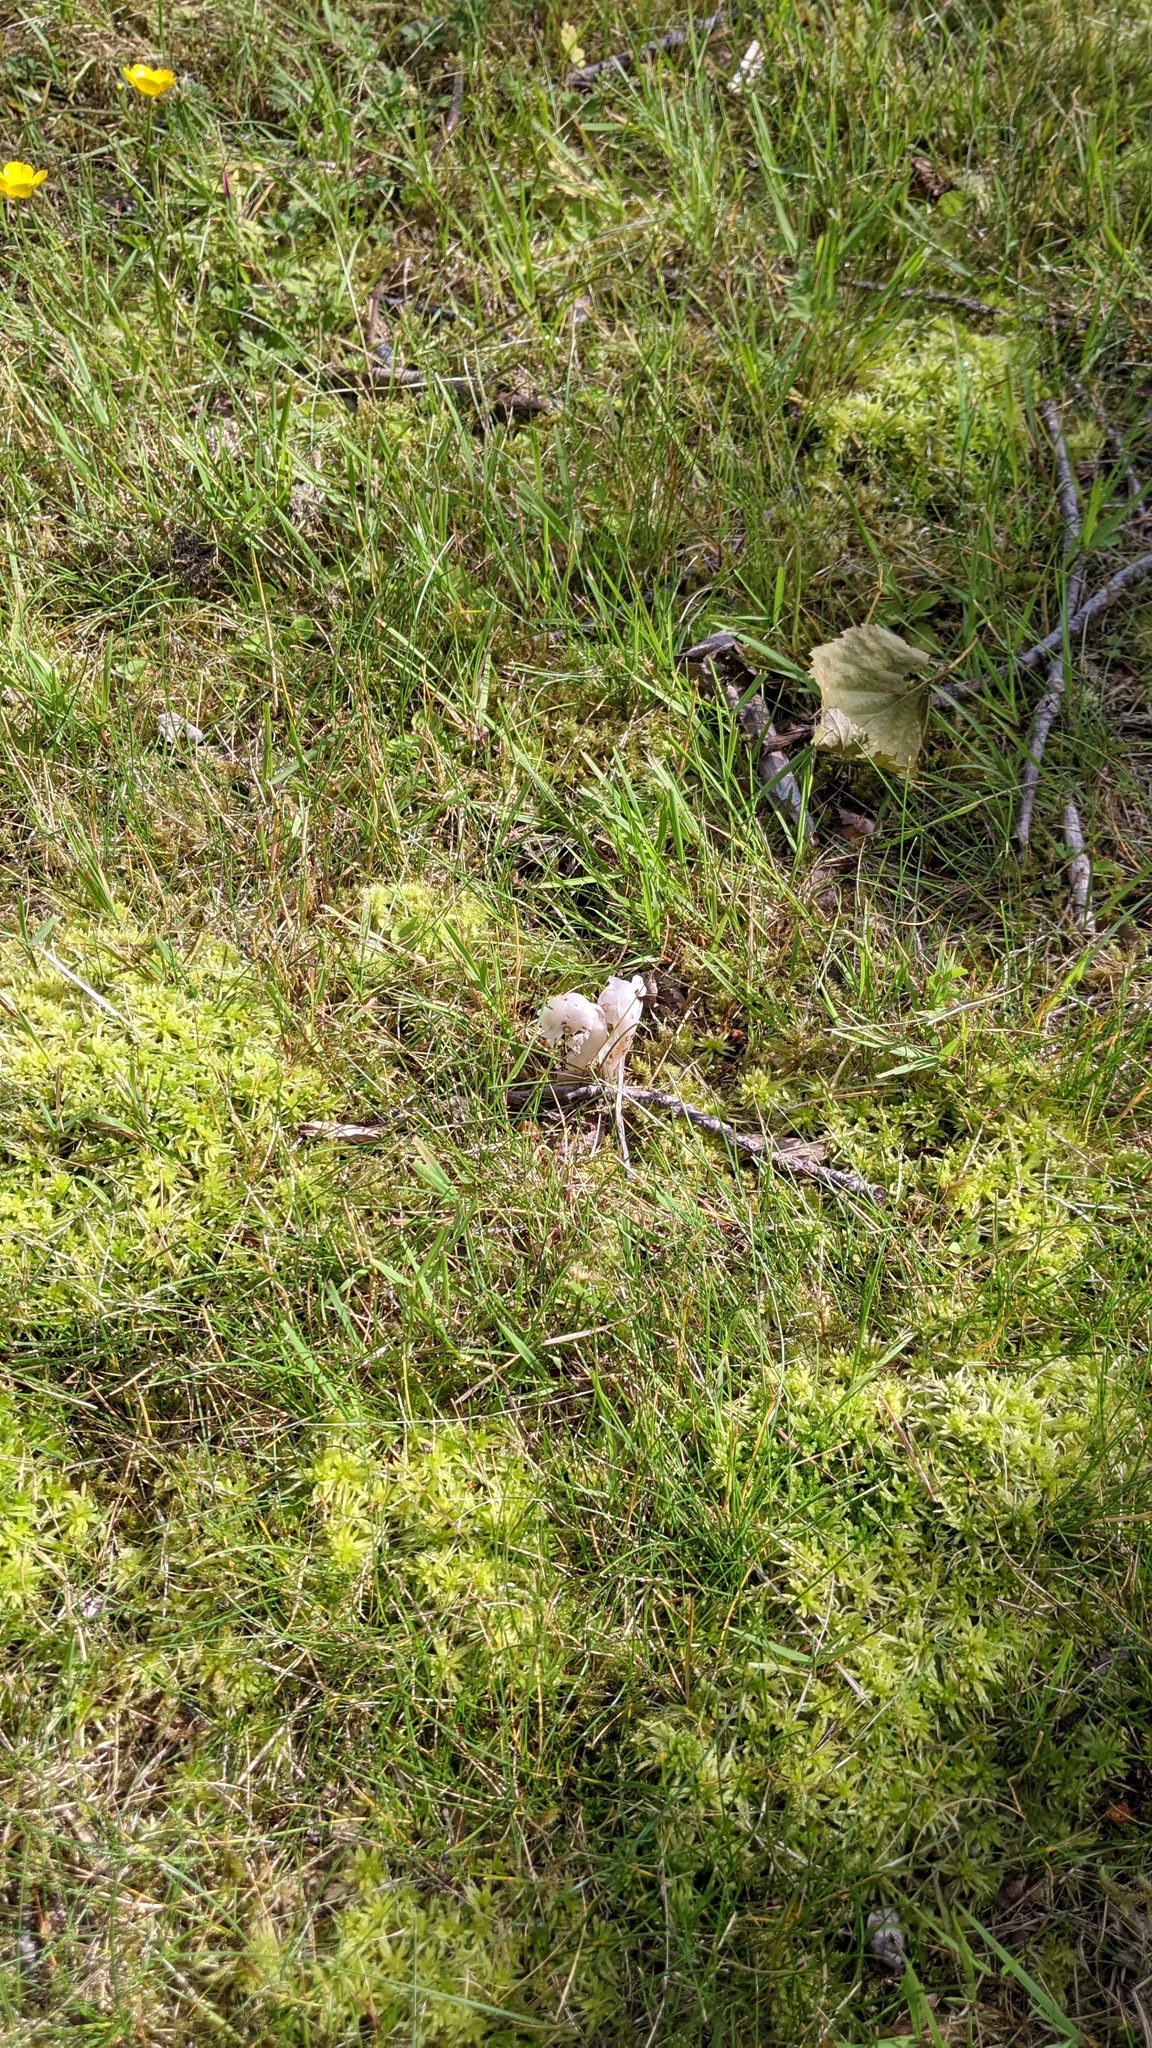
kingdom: Plantae
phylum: Tracheophyta
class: Magnoliopsida
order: Ericales
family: Ericaceae
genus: Monotropa
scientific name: Monotropa uniflora
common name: Convulsion root
